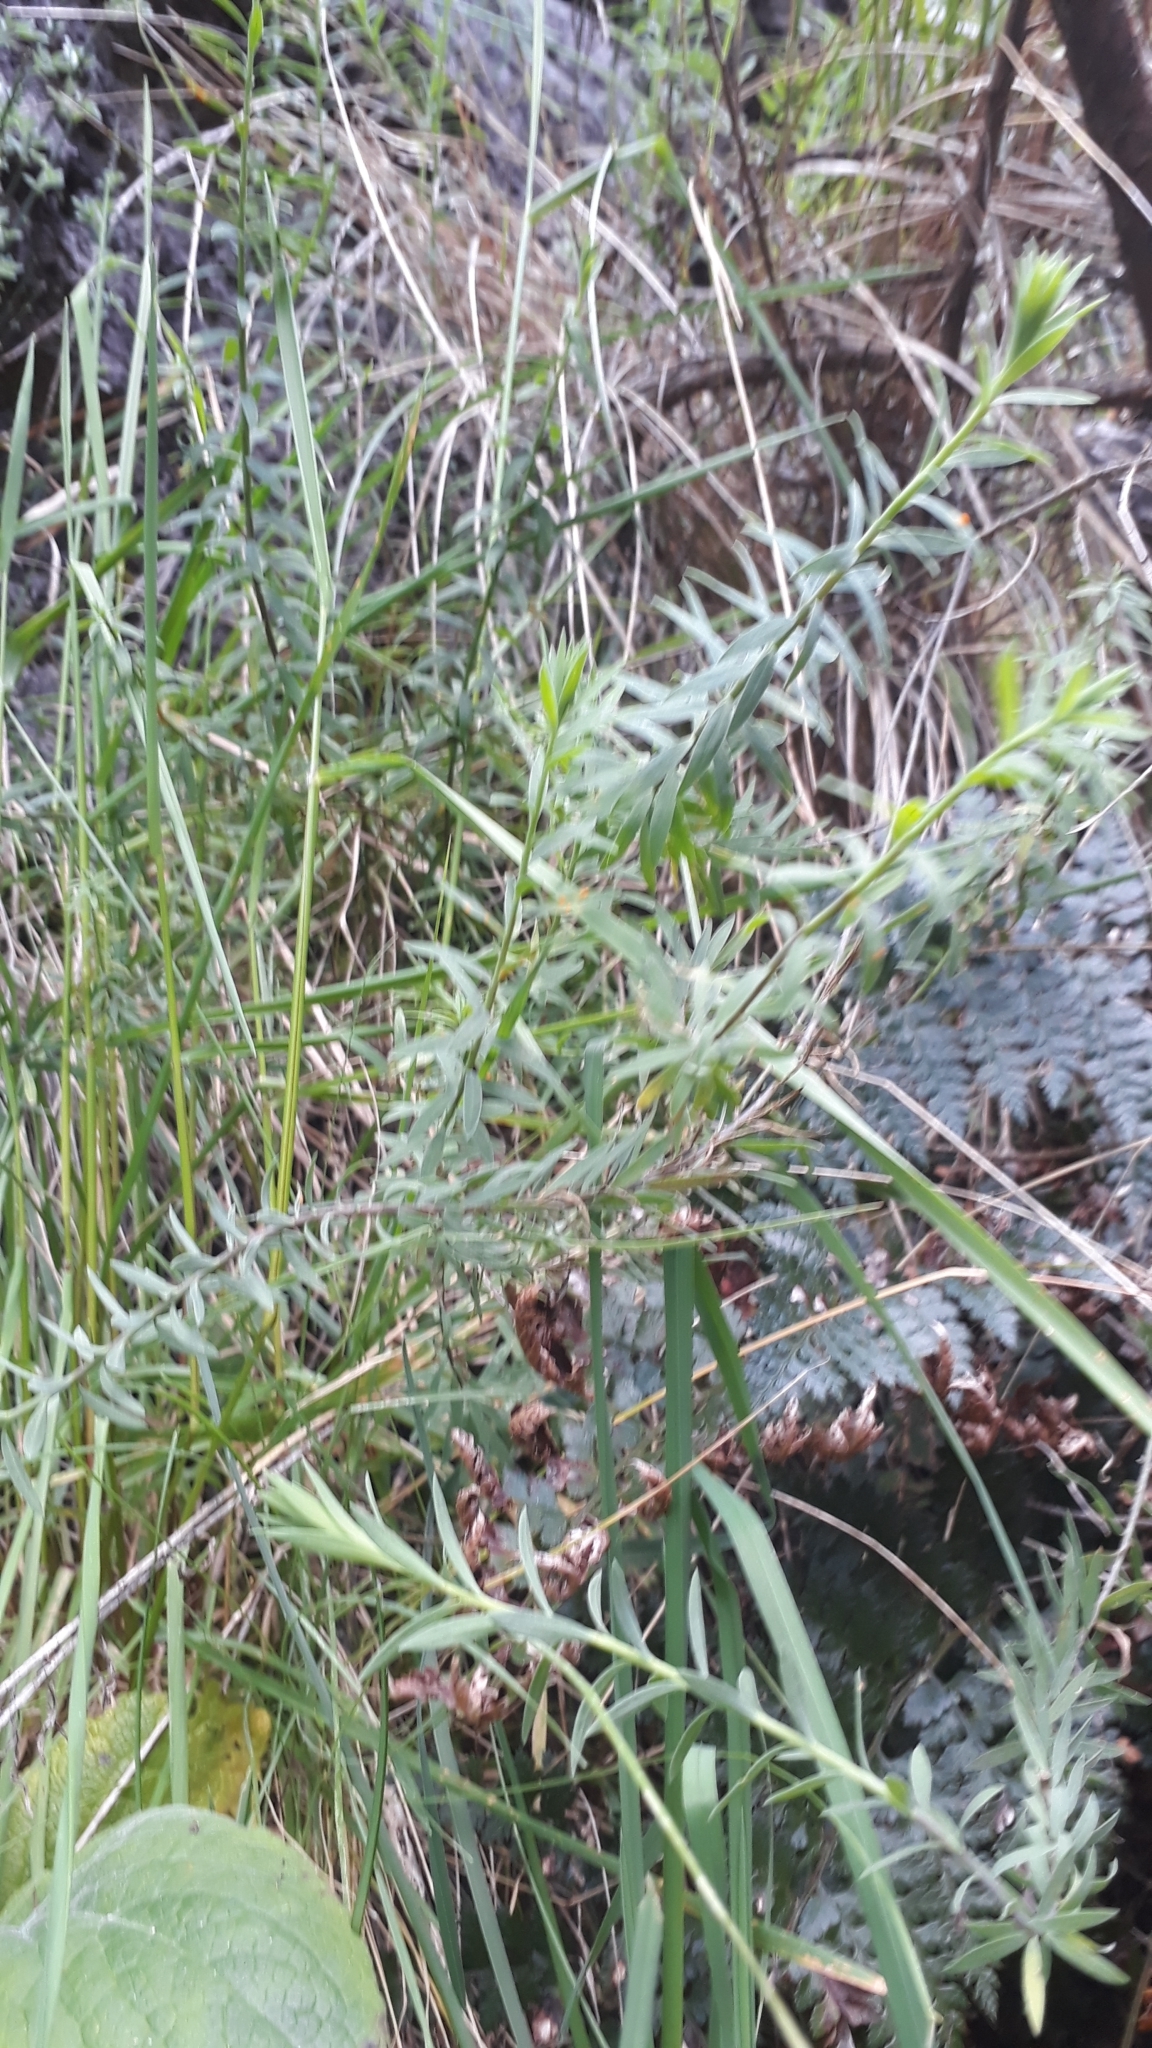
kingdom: Plantae
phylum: Tracheophyta
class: Magnoliopsida
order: Lamiales
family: Plantaginaceae
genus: Linaria
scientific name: Linaria purpurea
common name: Purple toadflax
